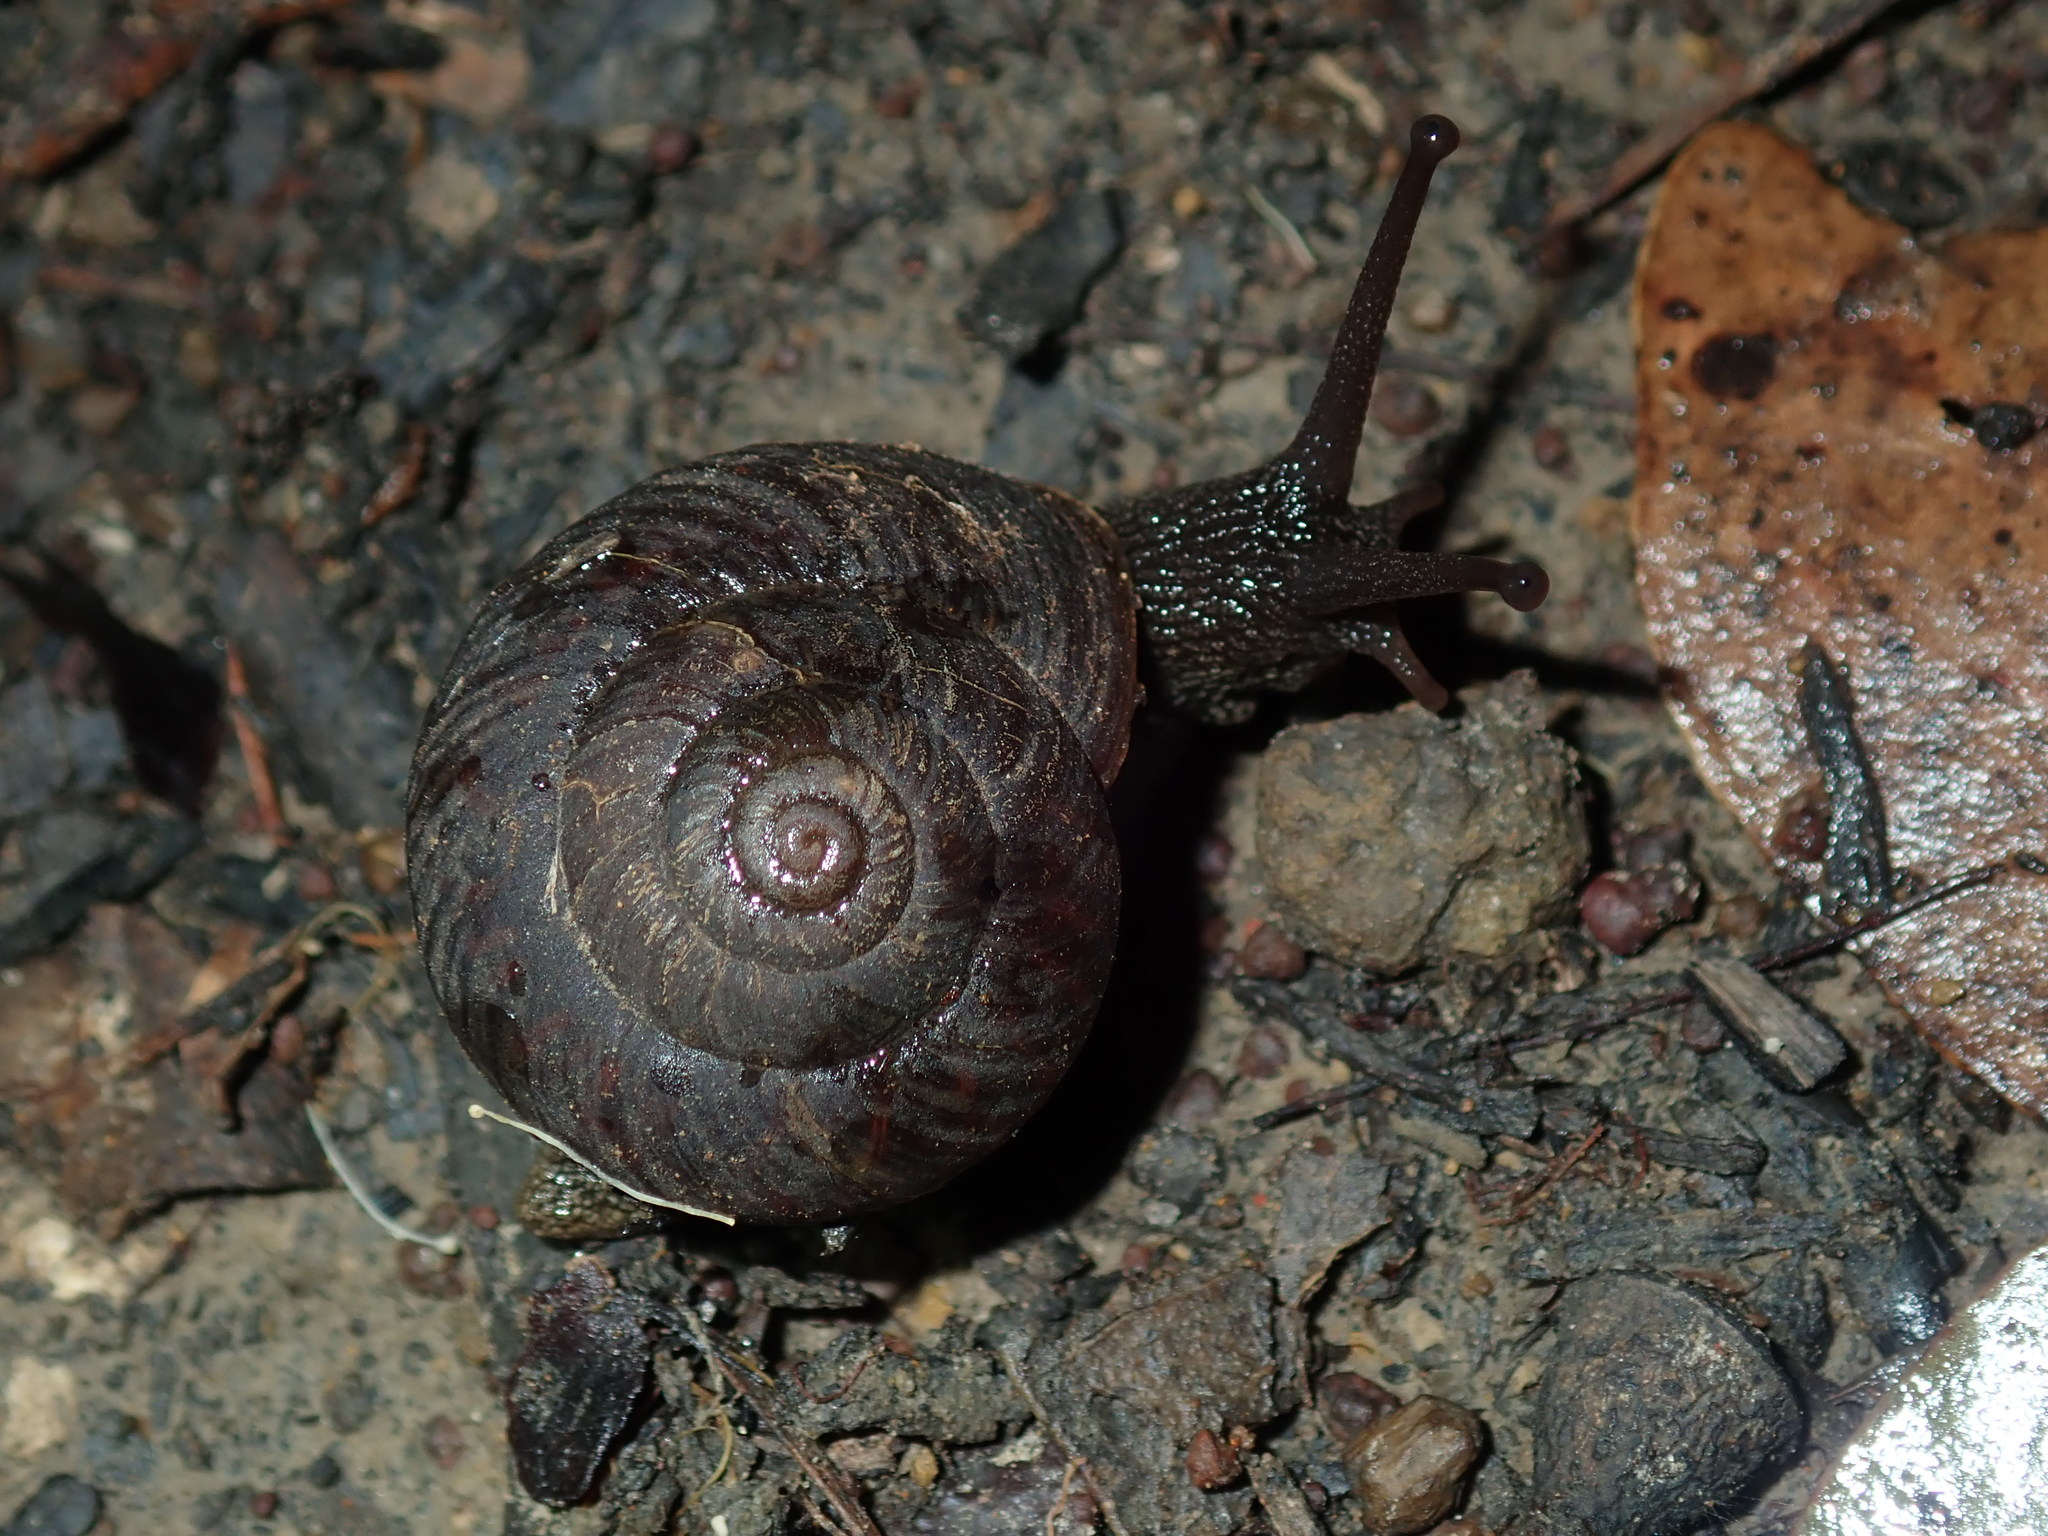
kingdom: Animalia
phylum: Mollusca
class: Gastropoda
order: Stylommatophora
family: Camaenidae
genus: Sauroconcha
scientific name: Sauroconcha sheai
